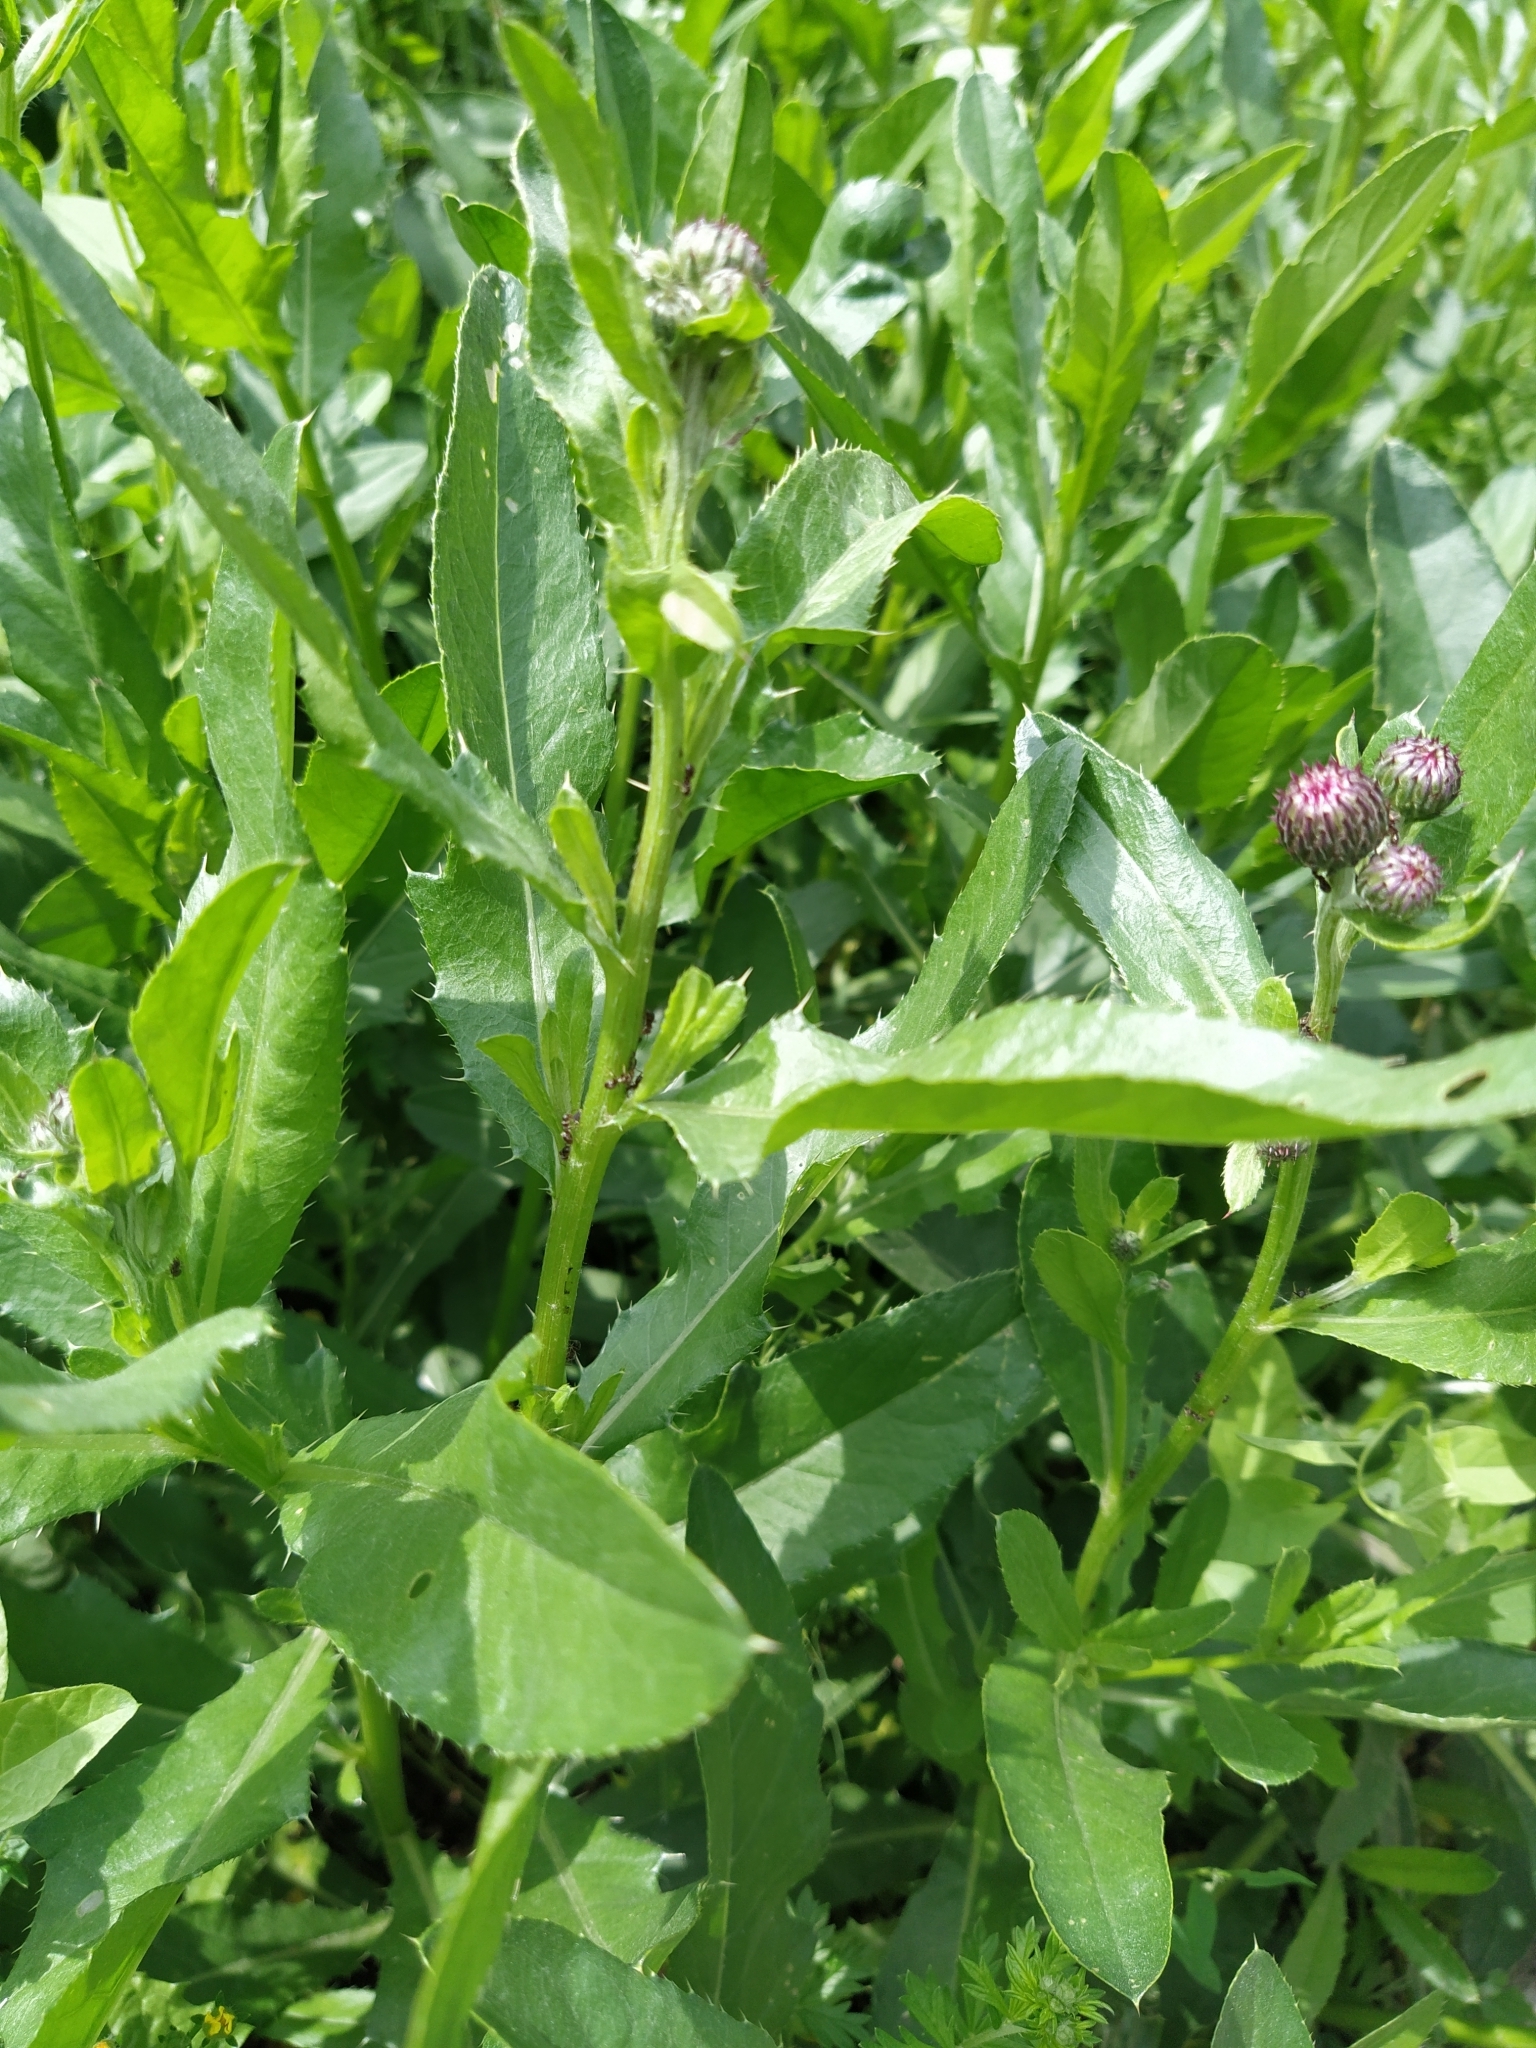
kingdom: Plantae
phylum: Tracheophyta
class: Magnoliopsida
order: Asterales
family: Asteraceae
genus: Cirsium
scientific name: Cirsium arvense
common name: Creeping thistle
